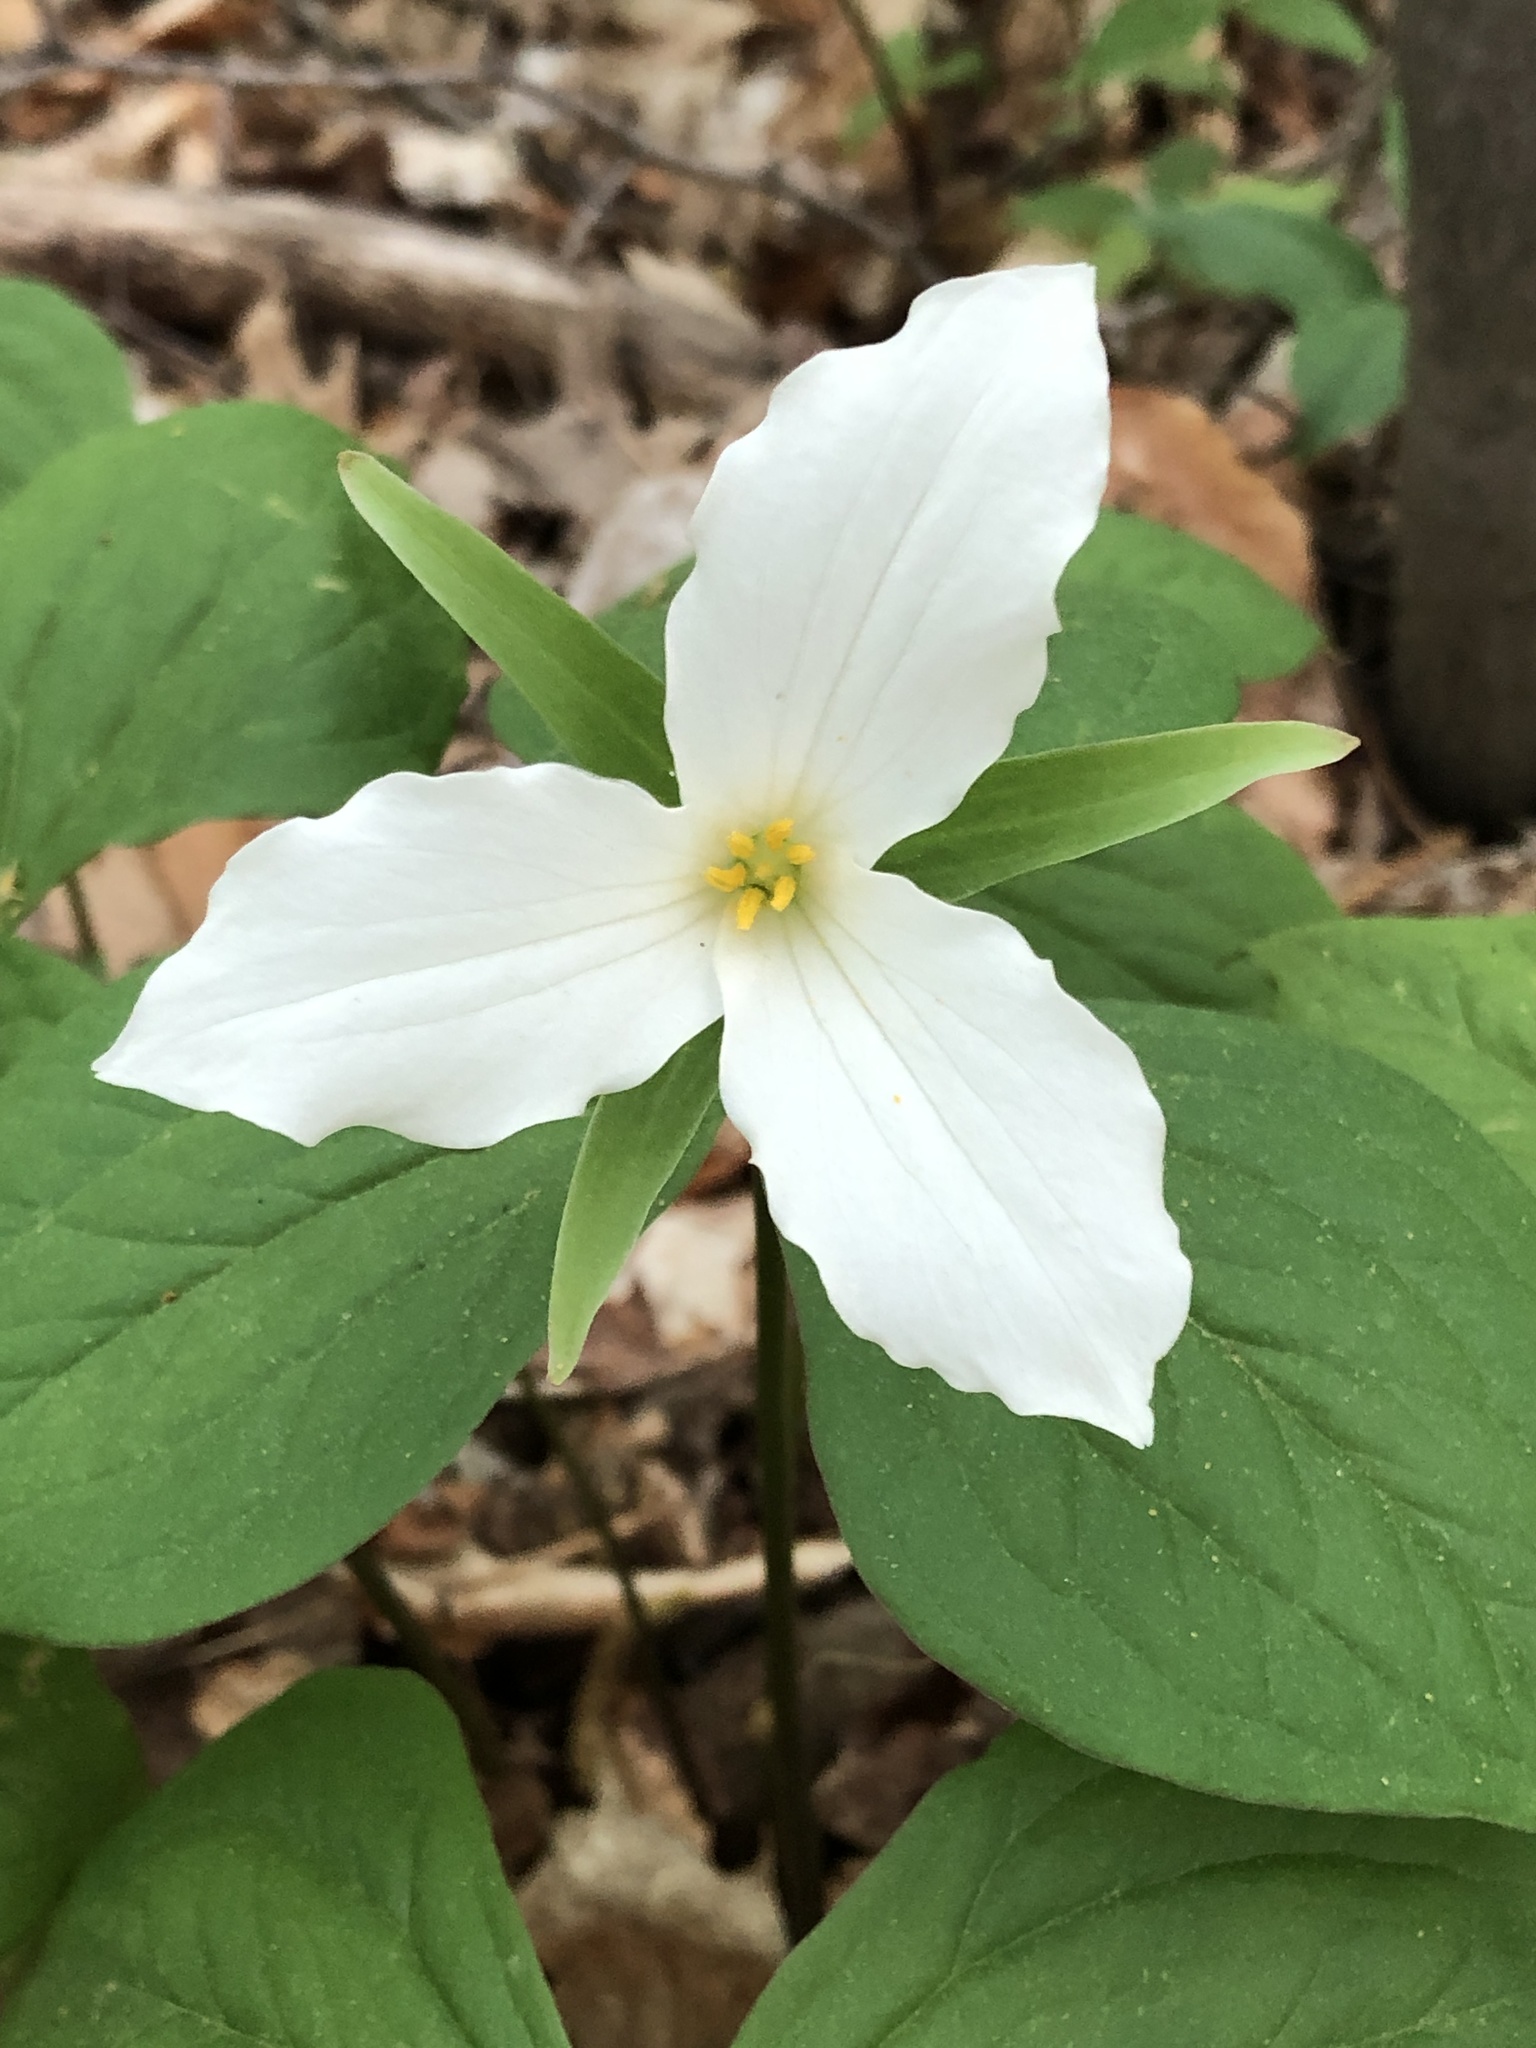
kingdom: Plantae
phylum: Tracheophyta
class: Liliopsida
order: Liliales
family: Melanthiaceae
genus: Trillium
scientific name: Trillium grandiflorum
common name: Great white trillium
